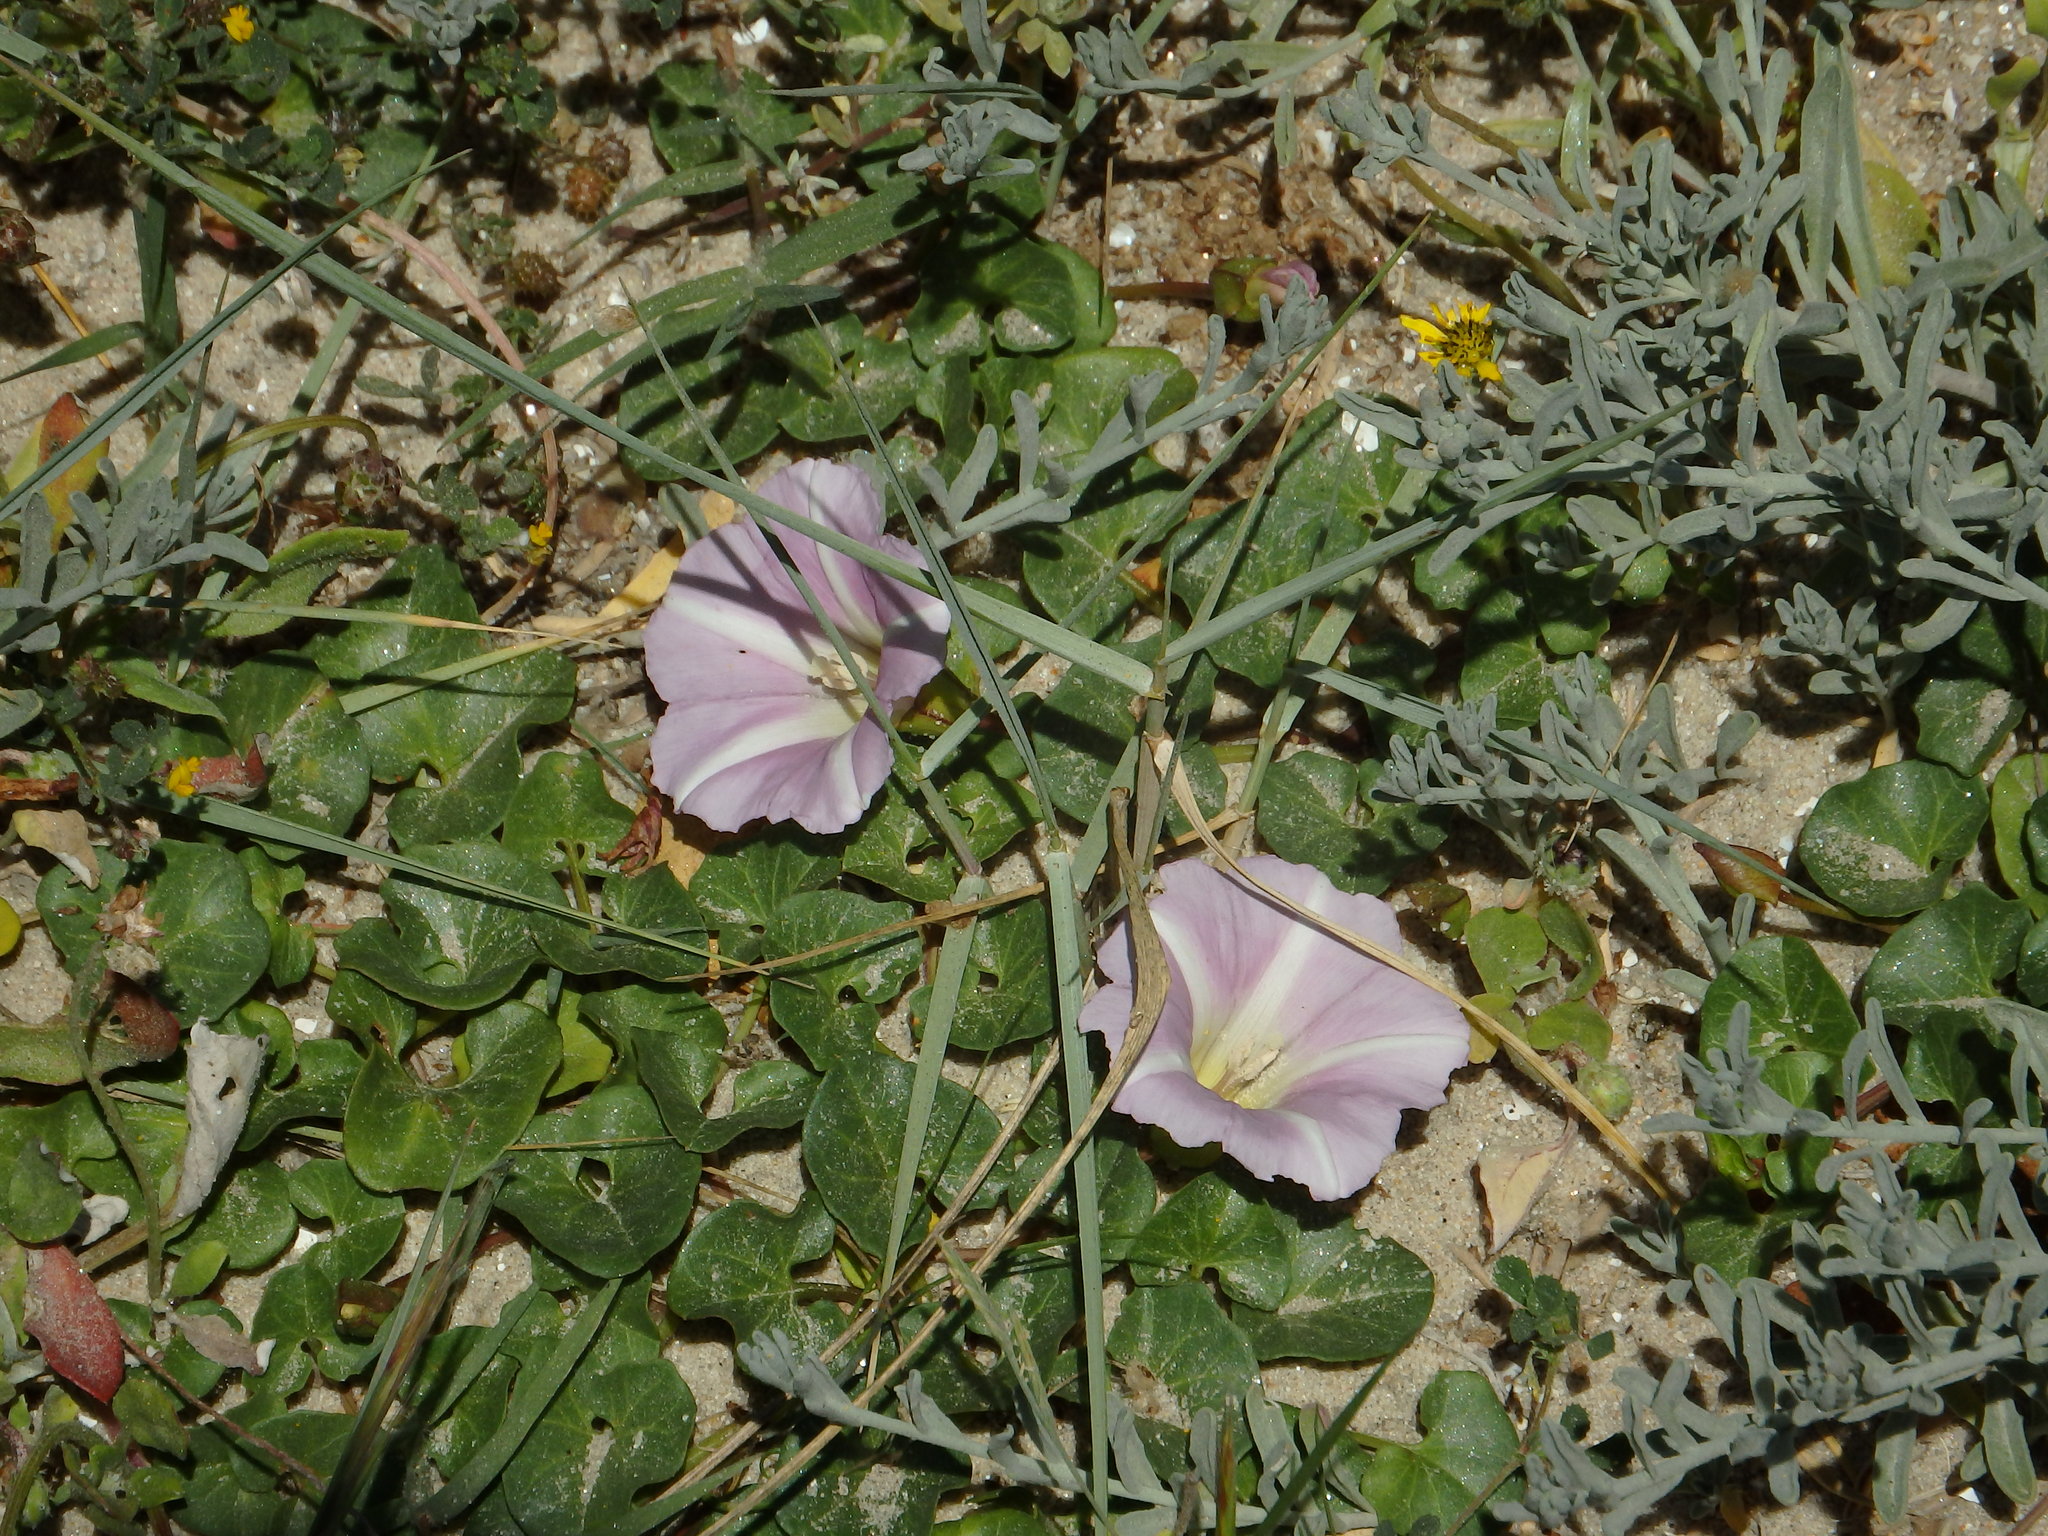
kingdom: Plantae
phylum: Tracheophyta
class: Magnoliopsida
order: Solanales
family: Convolvulaceae
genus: Calystegia
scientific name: Calystegia soldanella
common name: Sea bindweed
